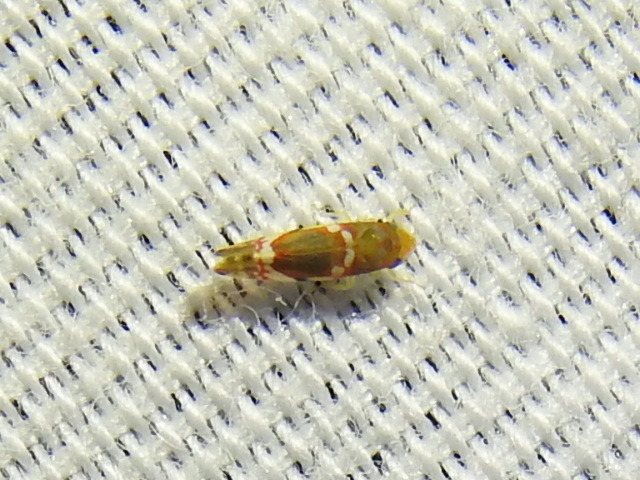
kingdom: Animalia
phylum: Arthropoda
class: Insecta
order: Hemiptera
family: Cicadellidae
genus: Erythroneura
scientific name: Erythroneura vitis
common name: Grapevine leafhopper
